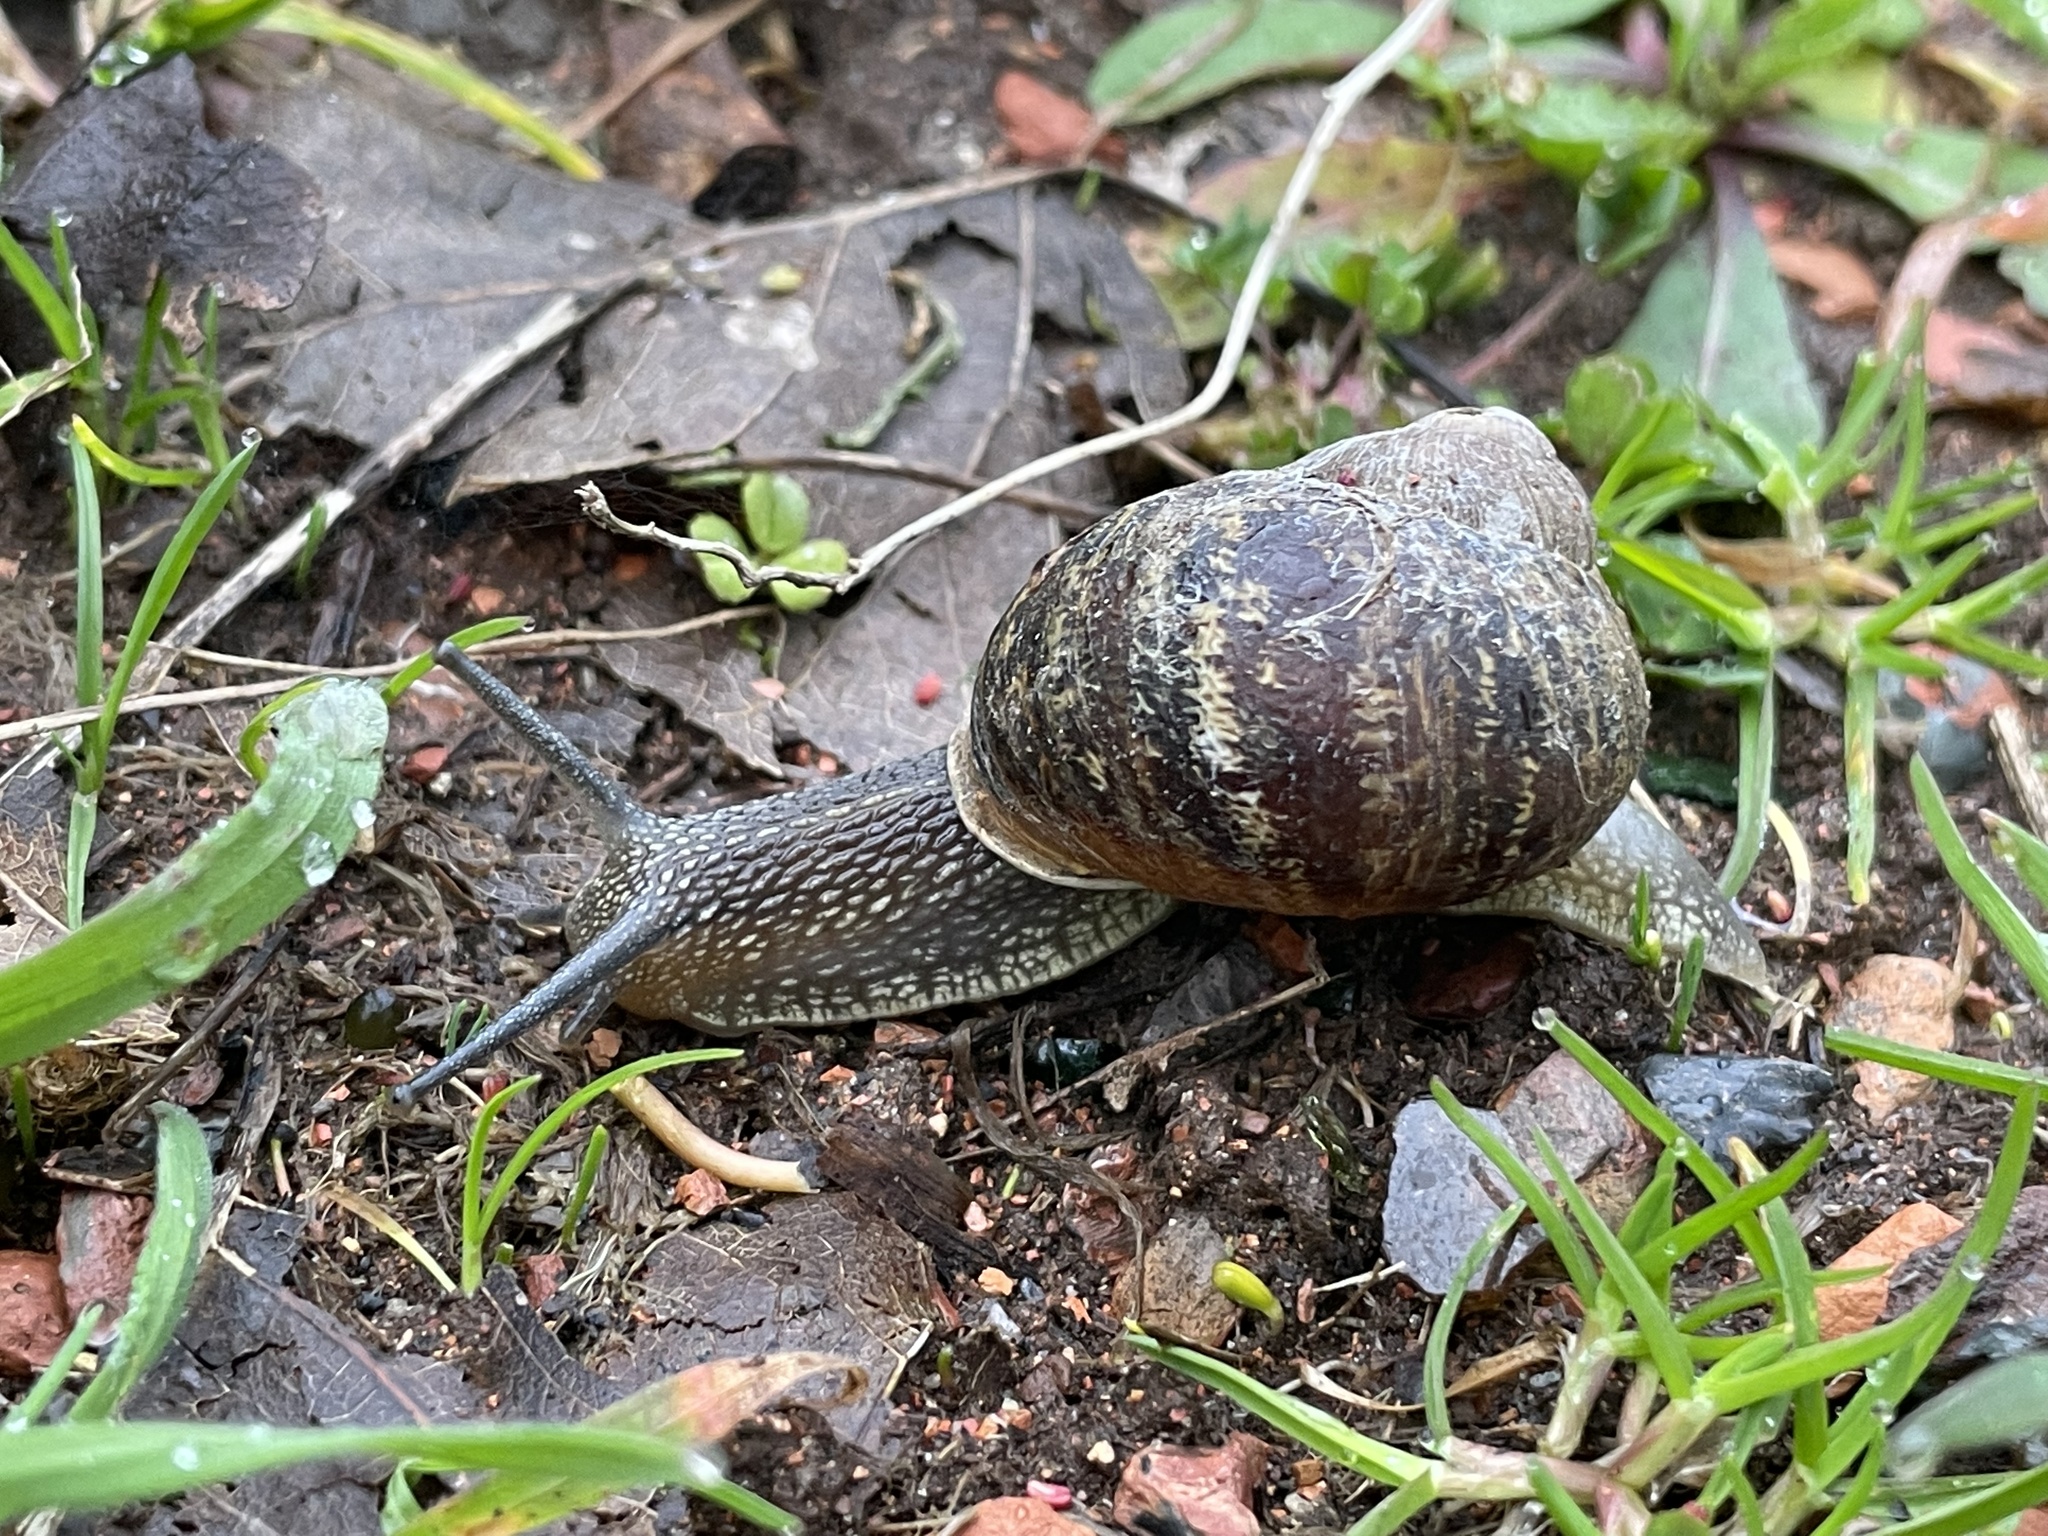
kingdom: Animalia
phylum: Mollusca
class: Gastropoda
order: Stylommatophora
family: Helicidae
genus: Cornu
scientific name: Cornu aspersum
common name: Brown garden snail
